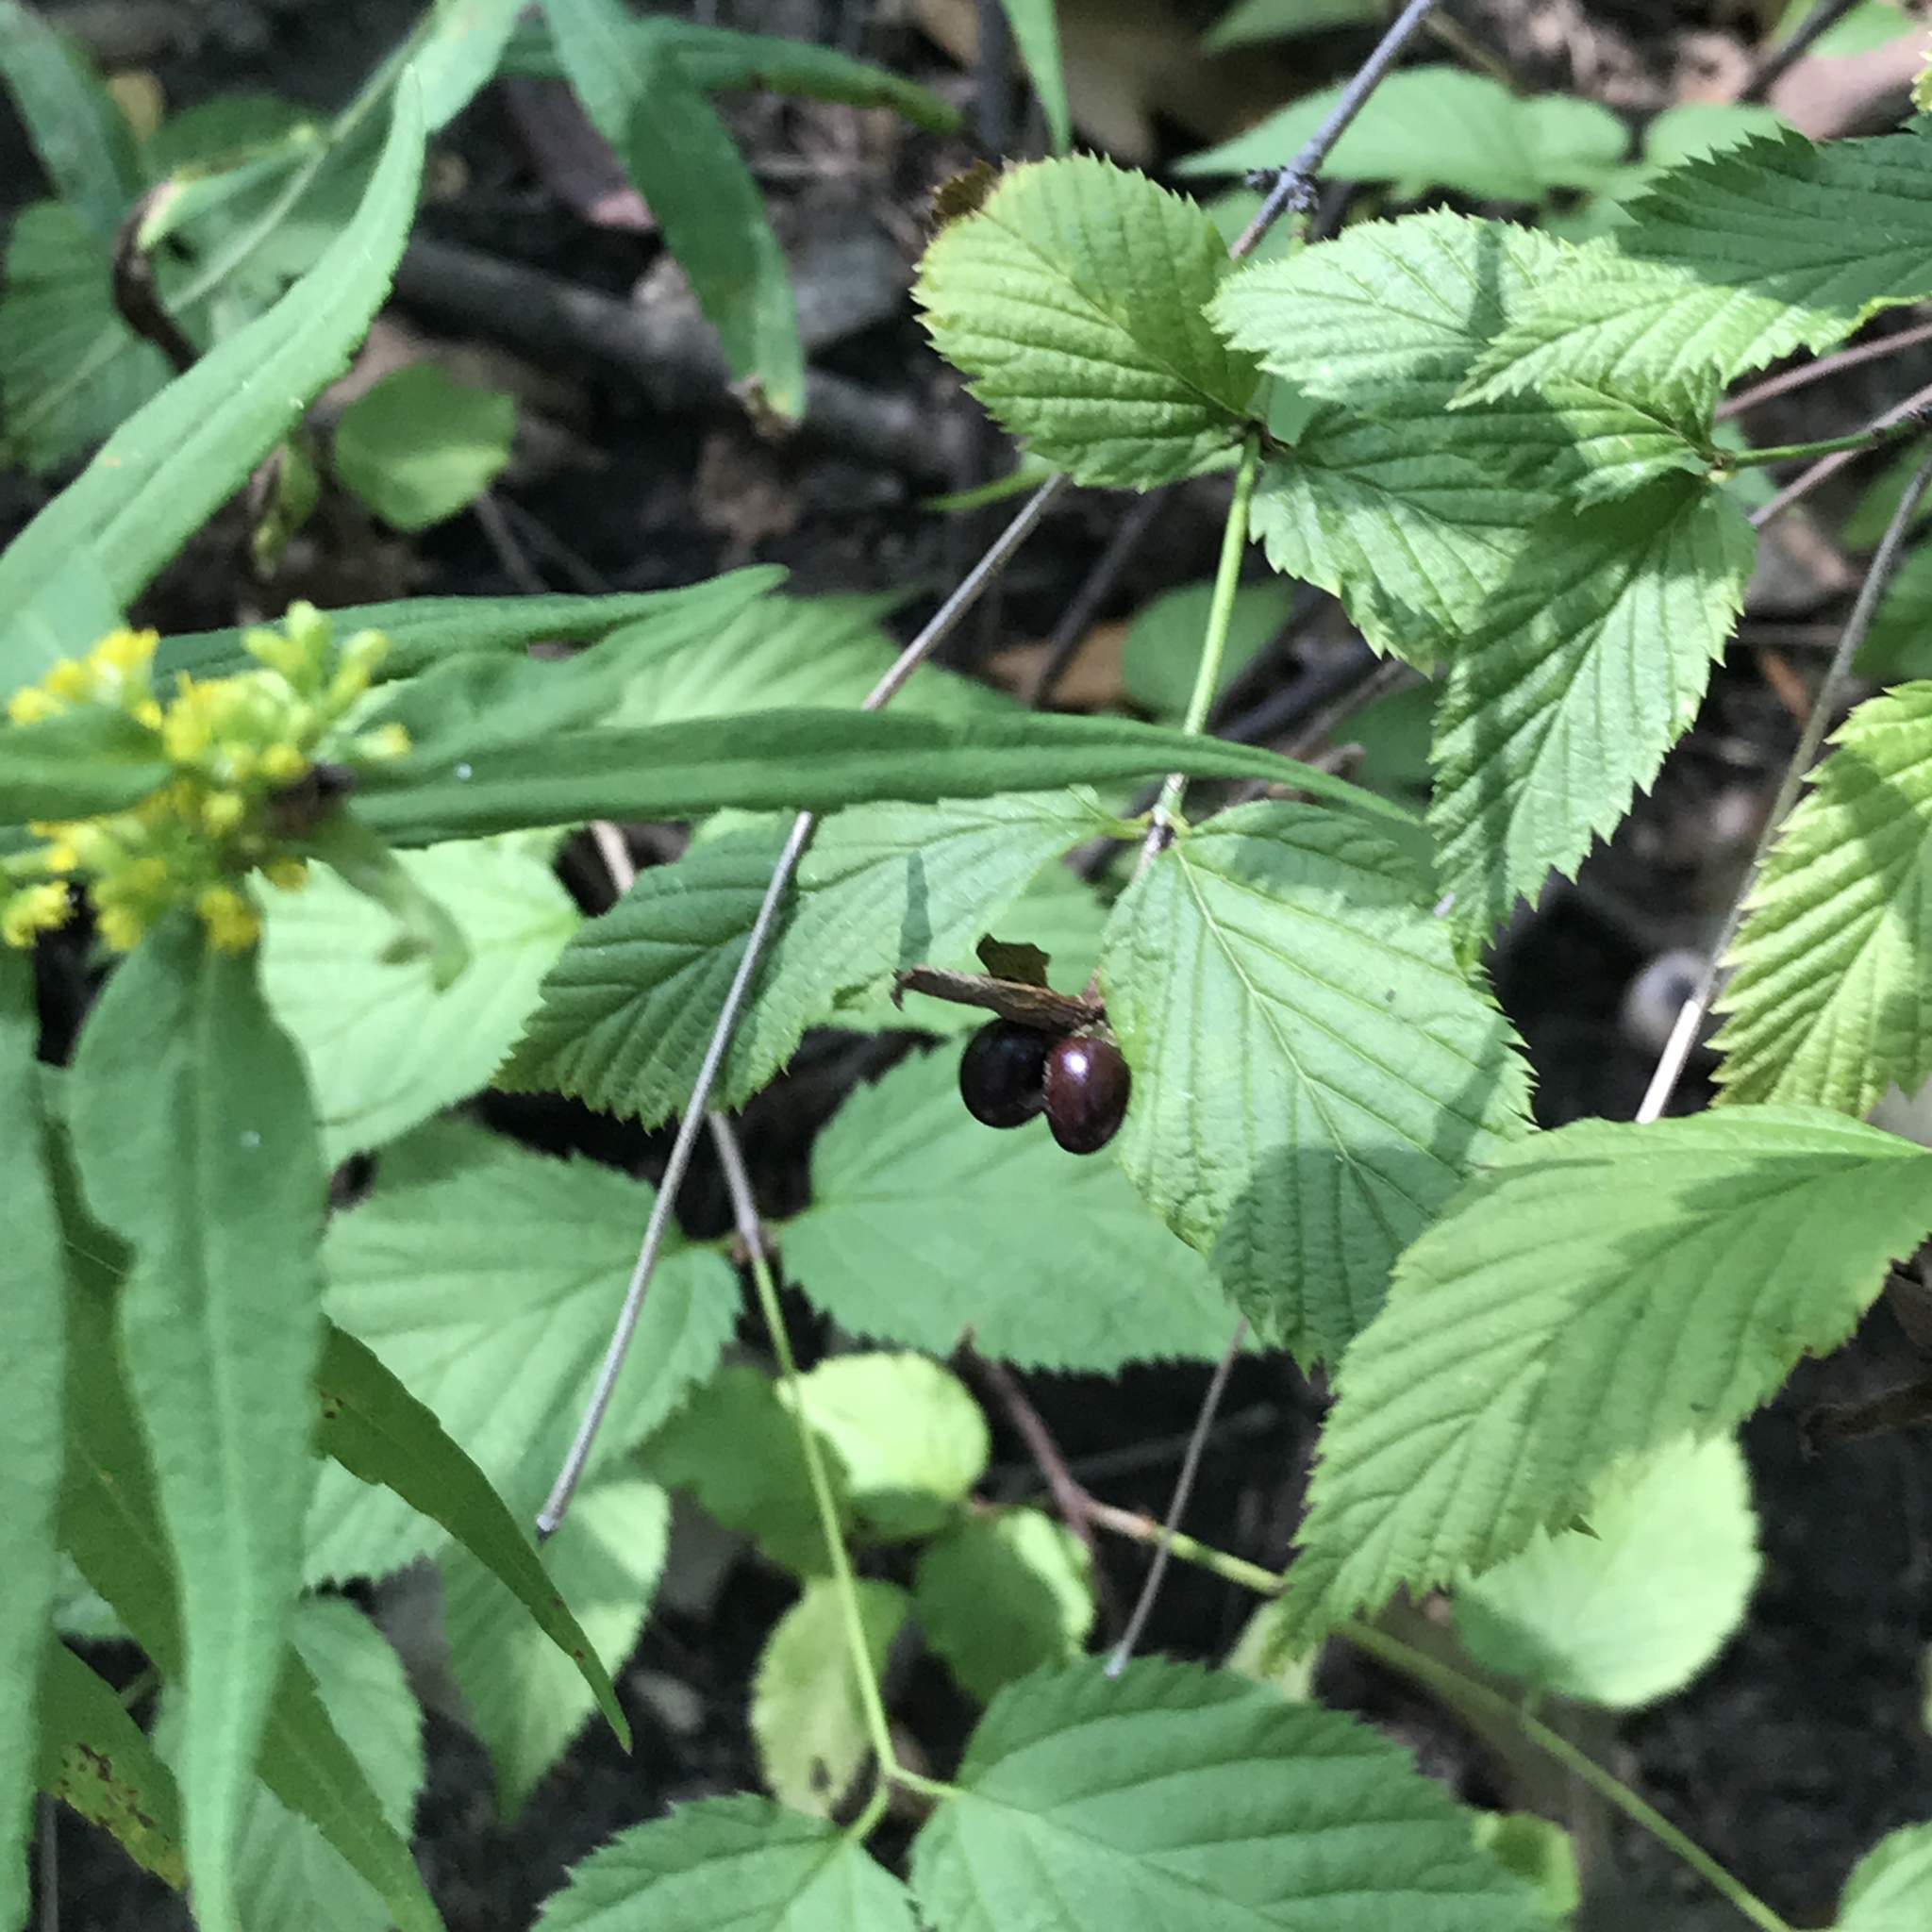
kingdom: Plantae
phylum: Tracheophyta
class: Magnoliopsida
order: Rosales
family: Rosaceae
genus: Rhodotypos
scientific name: Rhodotypos scandens
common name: Jetbead
